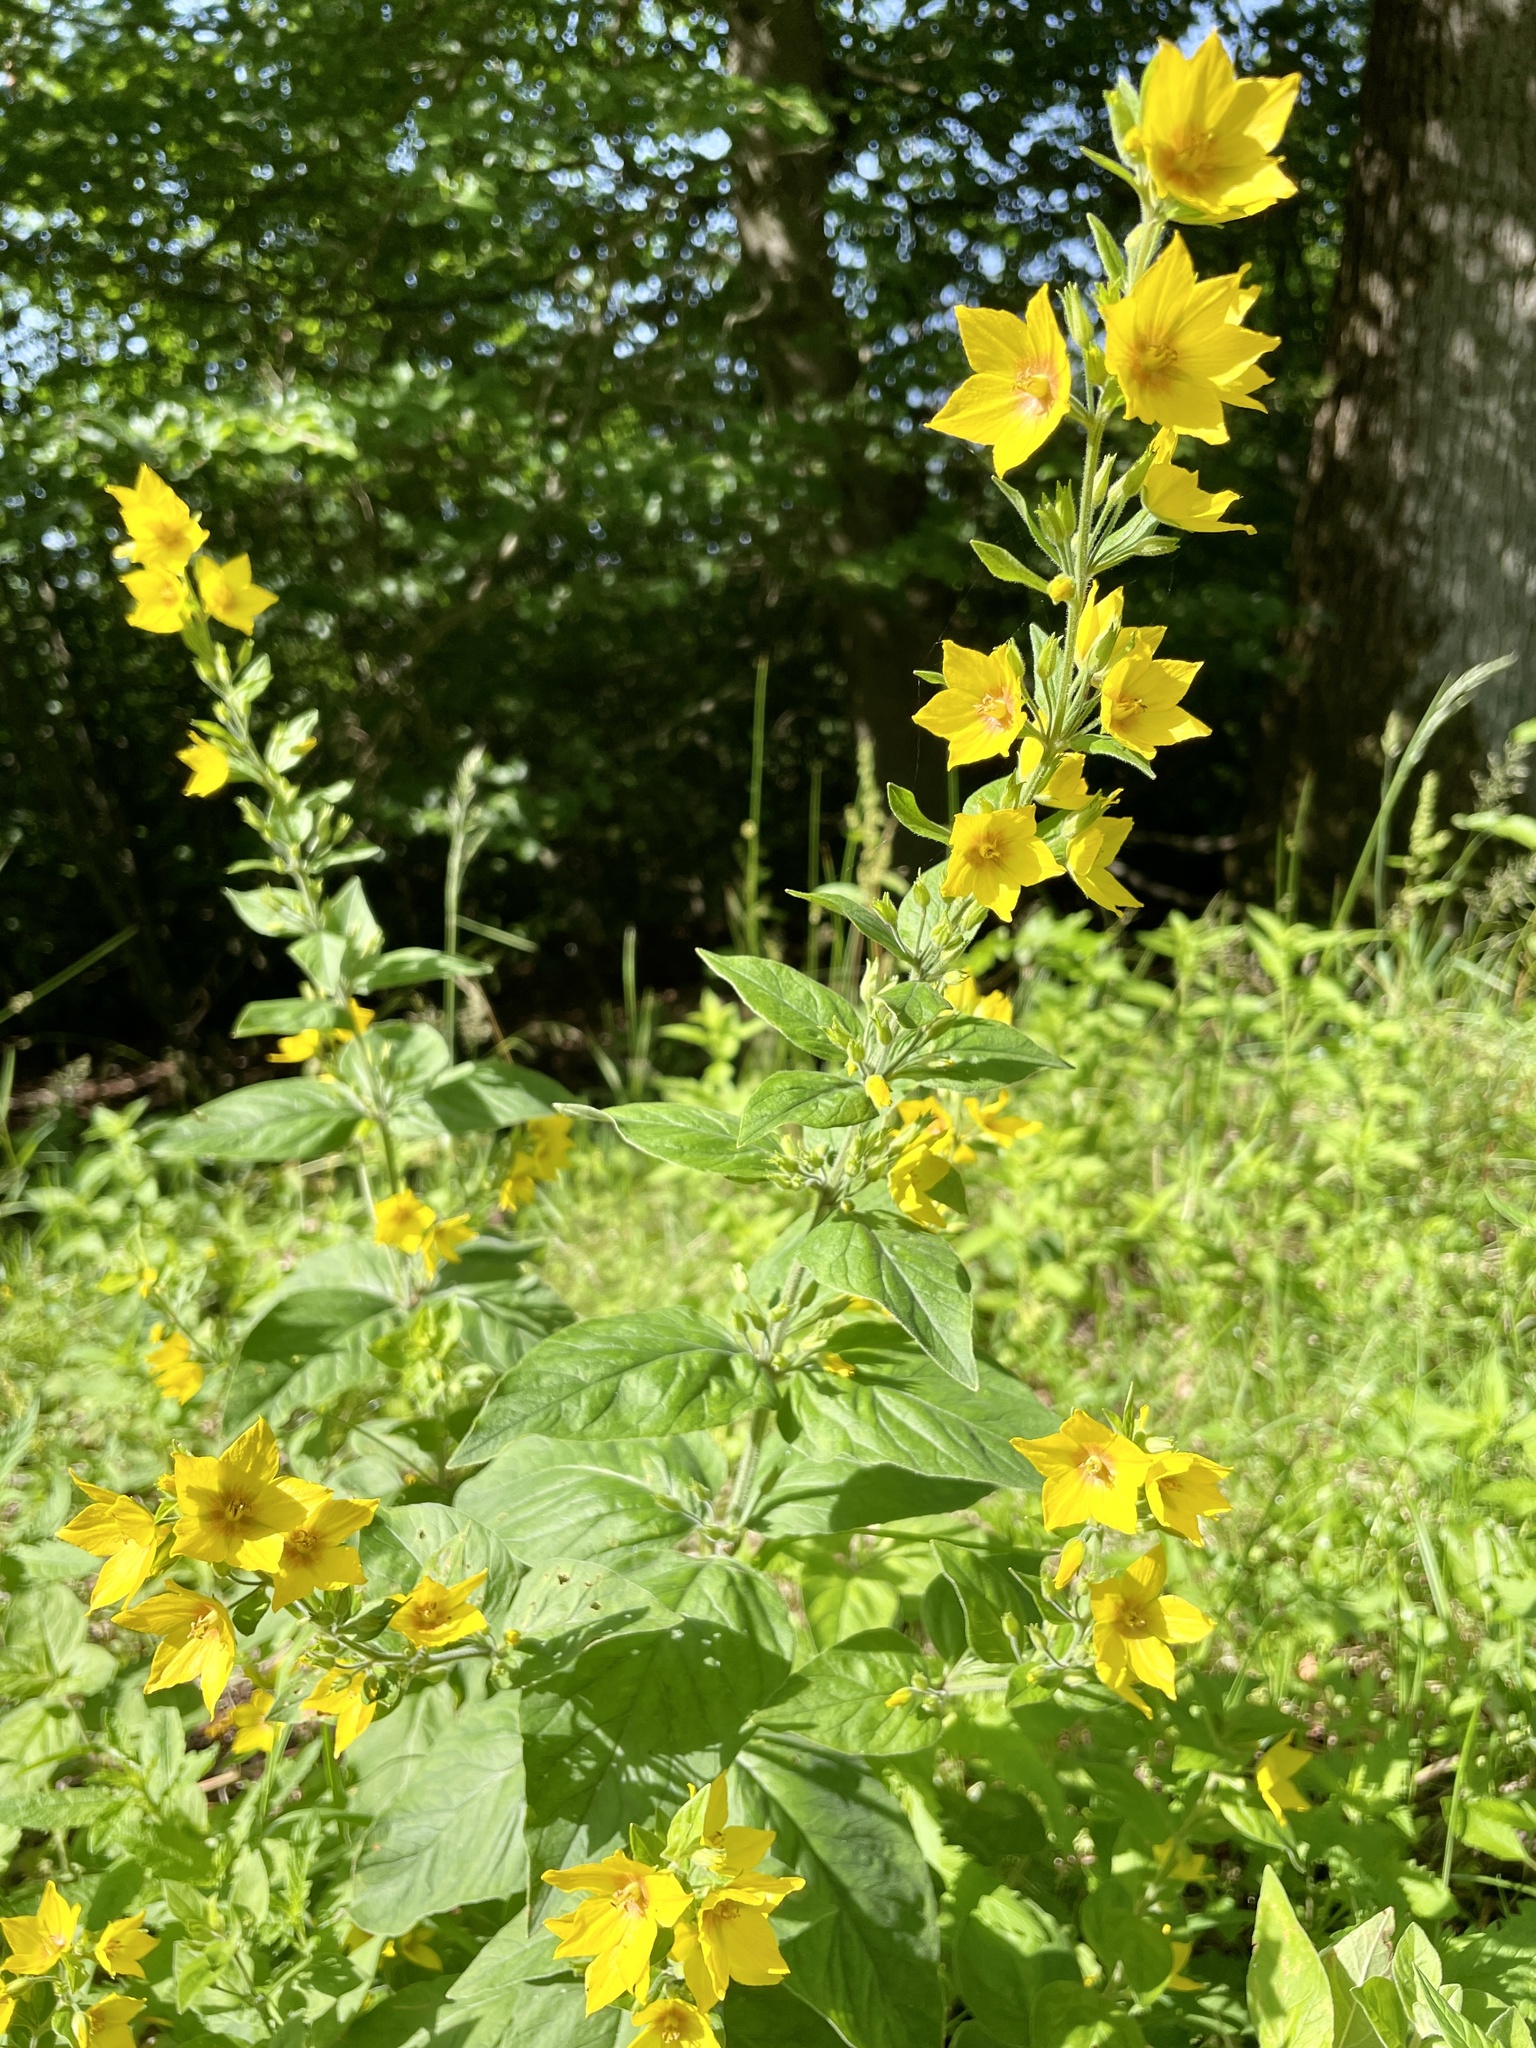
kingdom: Plantae
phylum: Tracheophyta
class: Magnoliopsida
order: Ericales
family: Primulaceae
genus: Lysimachia
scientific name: Lysimachia punctata
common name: Dotted loosestrife
